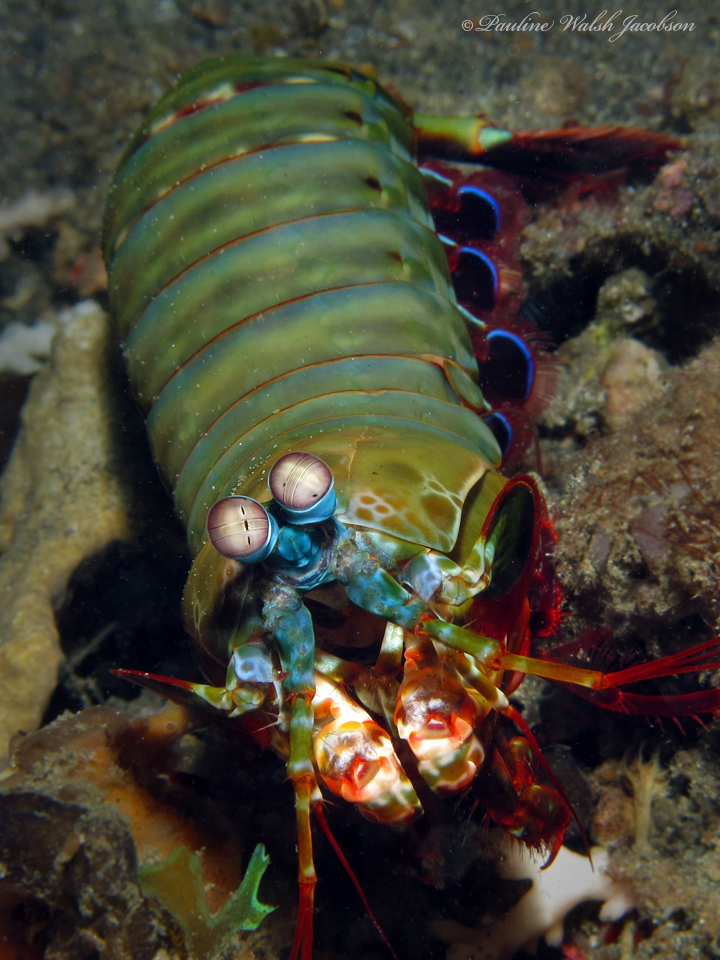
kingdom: Animalia
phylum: Arthropoda
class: Malacostraca
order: Stomatopoda
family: Odontodactylidae
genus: Odontodactylus
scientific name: Odontodactylus scyllarus
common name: Peacock mantis shrimp
